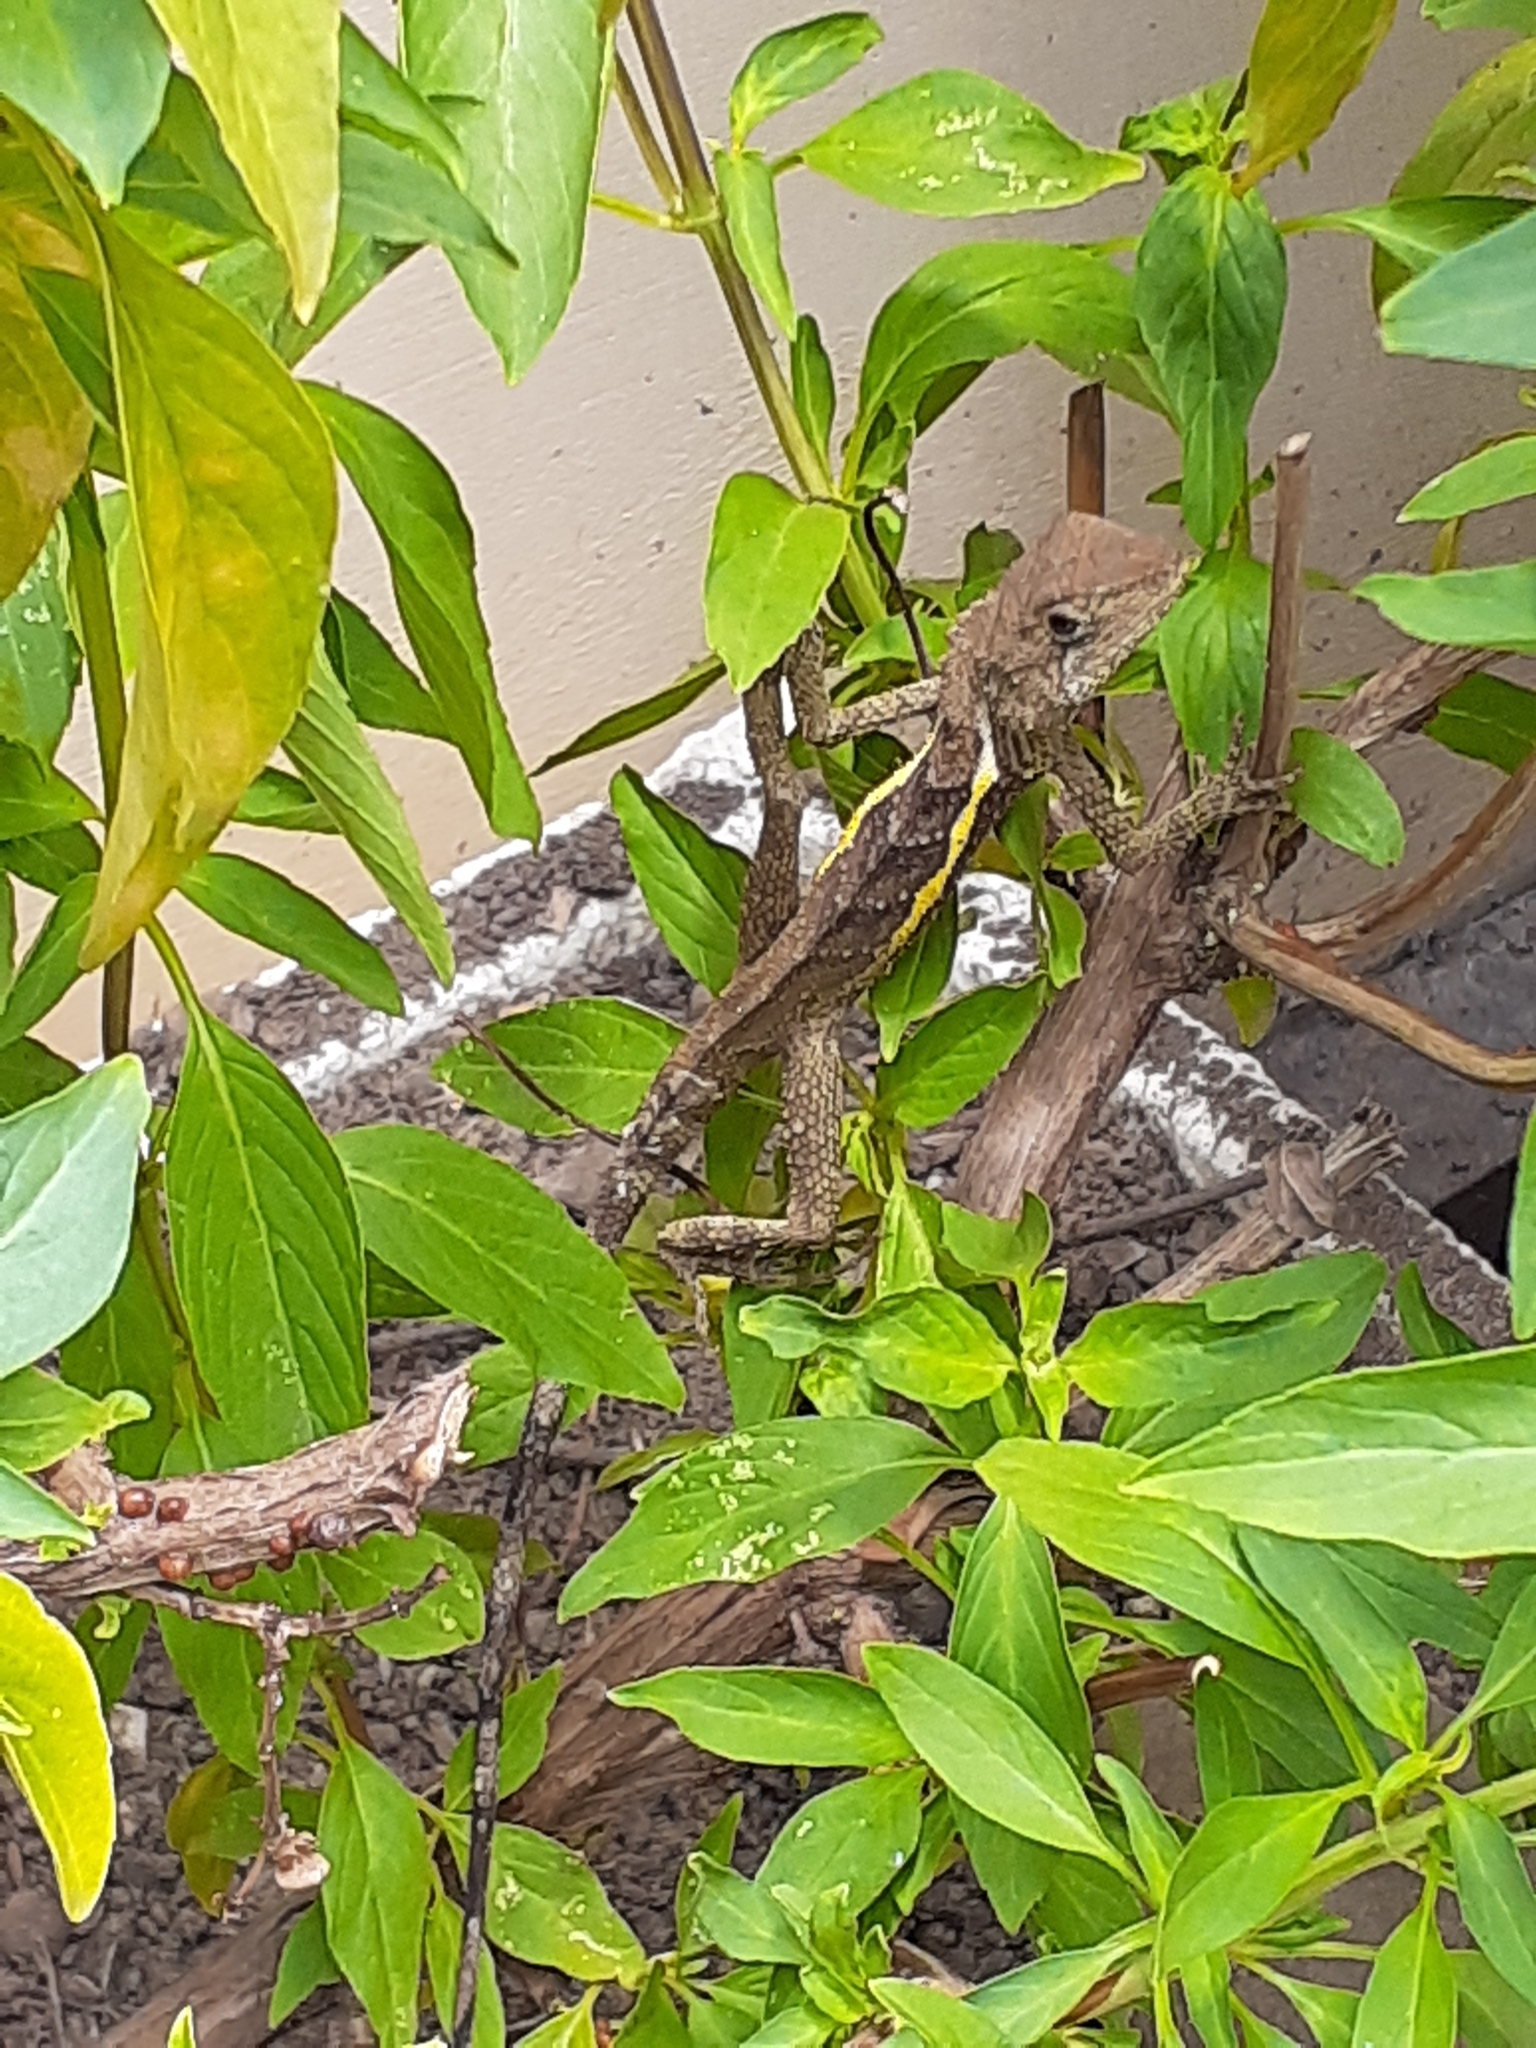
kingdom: Animalia
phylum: Chordata
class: Squamata
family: Agamidae
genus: Diploderma
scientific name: Diploderma swinhonis
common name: Taiwan japalure
